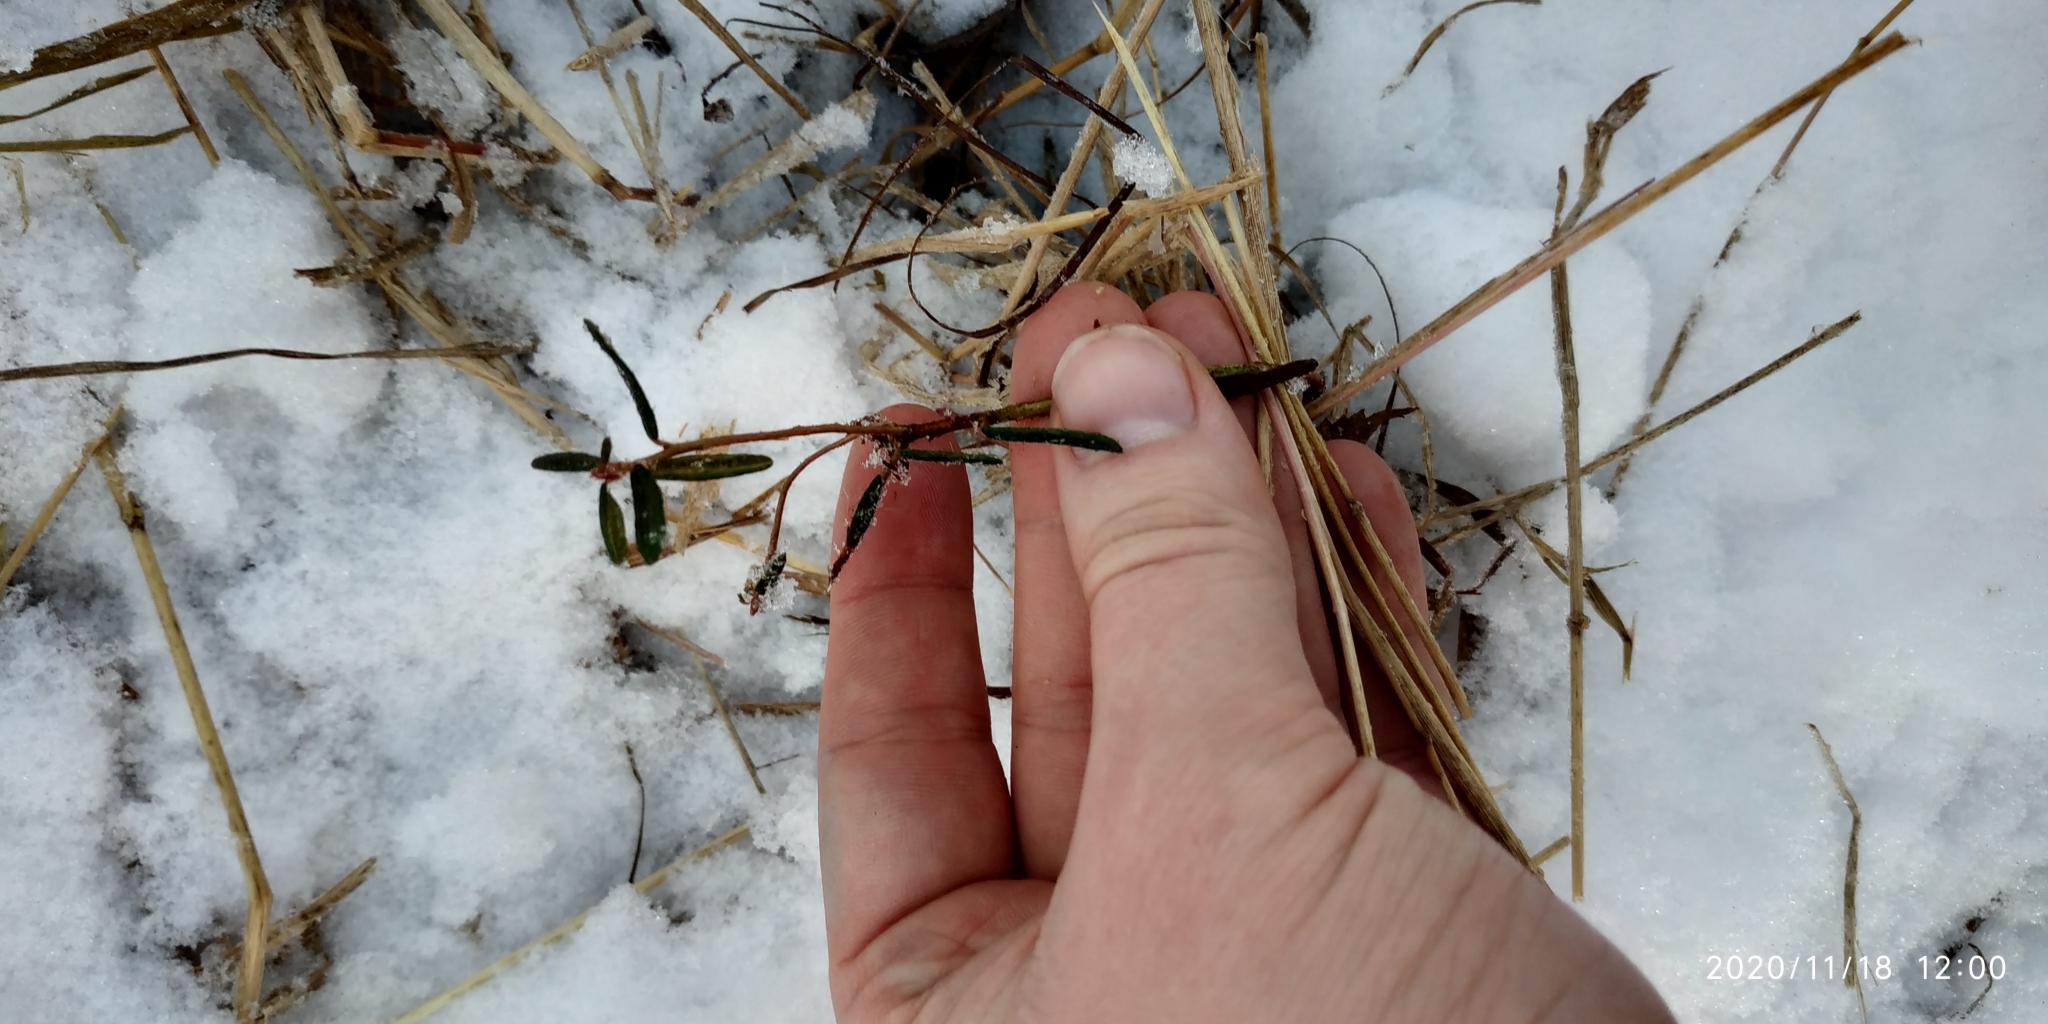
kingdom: Plantae
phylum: Tracheophyta
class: Magnoliopsida
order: Ericales
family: Ericaceae
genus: Rhododendron
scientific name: Rhododendron tomentosum
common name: Marsh labrador tea
